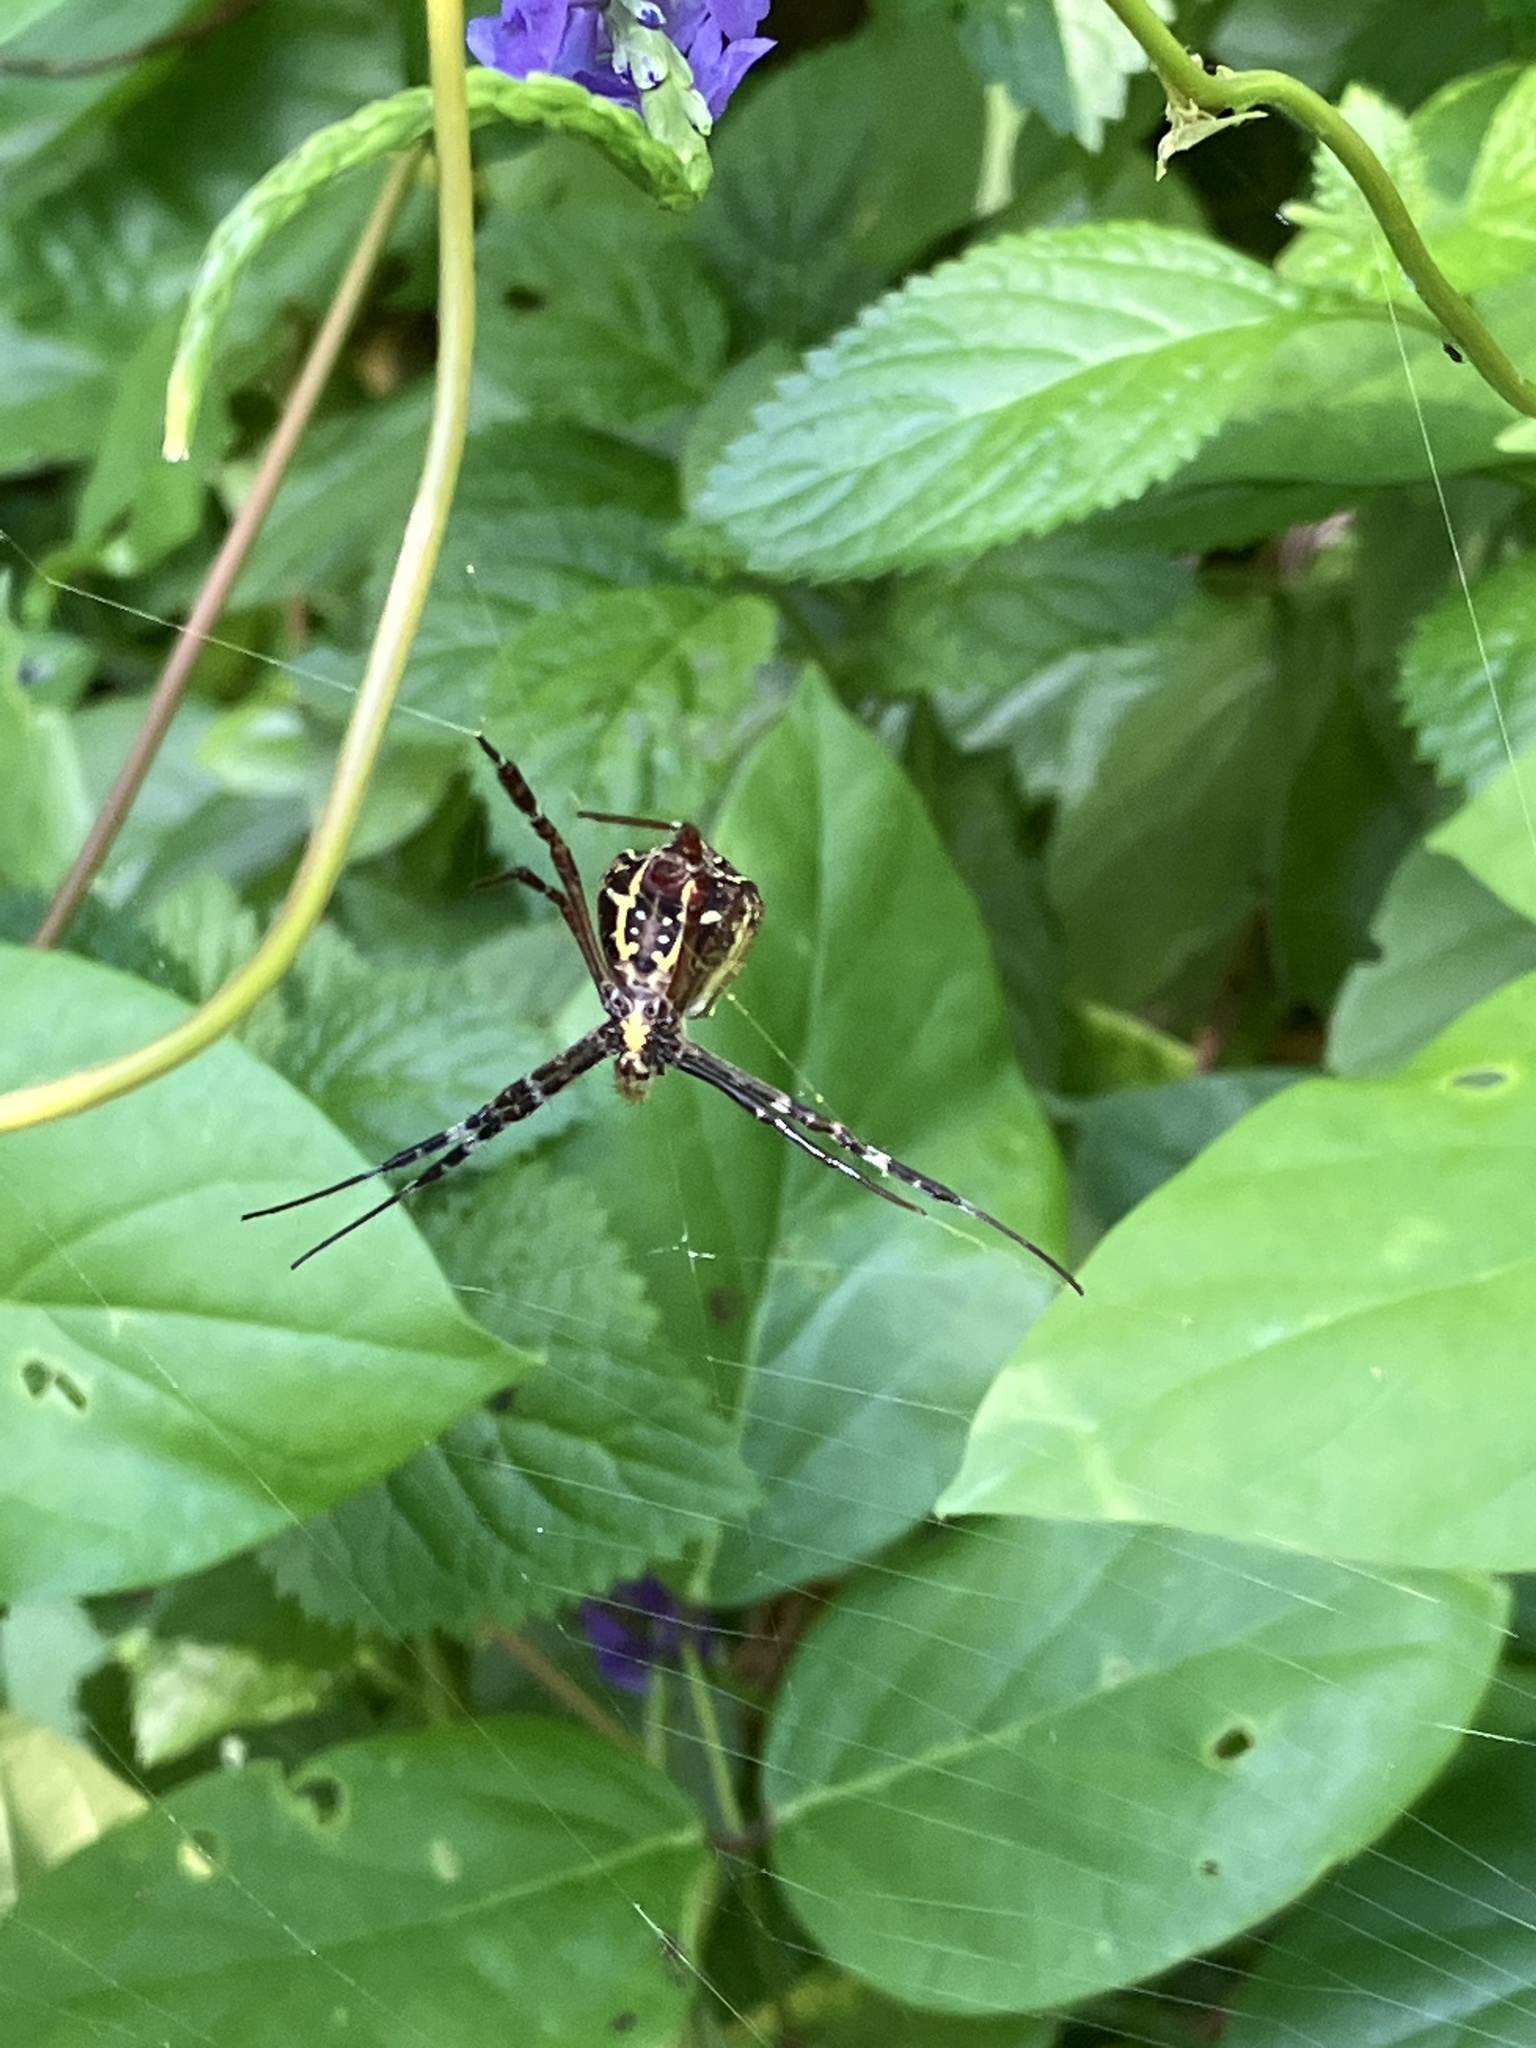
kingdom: Animalia
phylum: Arthropoda
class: Arachnida
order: Araneae
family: Araneidae
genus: Argiope
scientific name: Argiope anasuja
